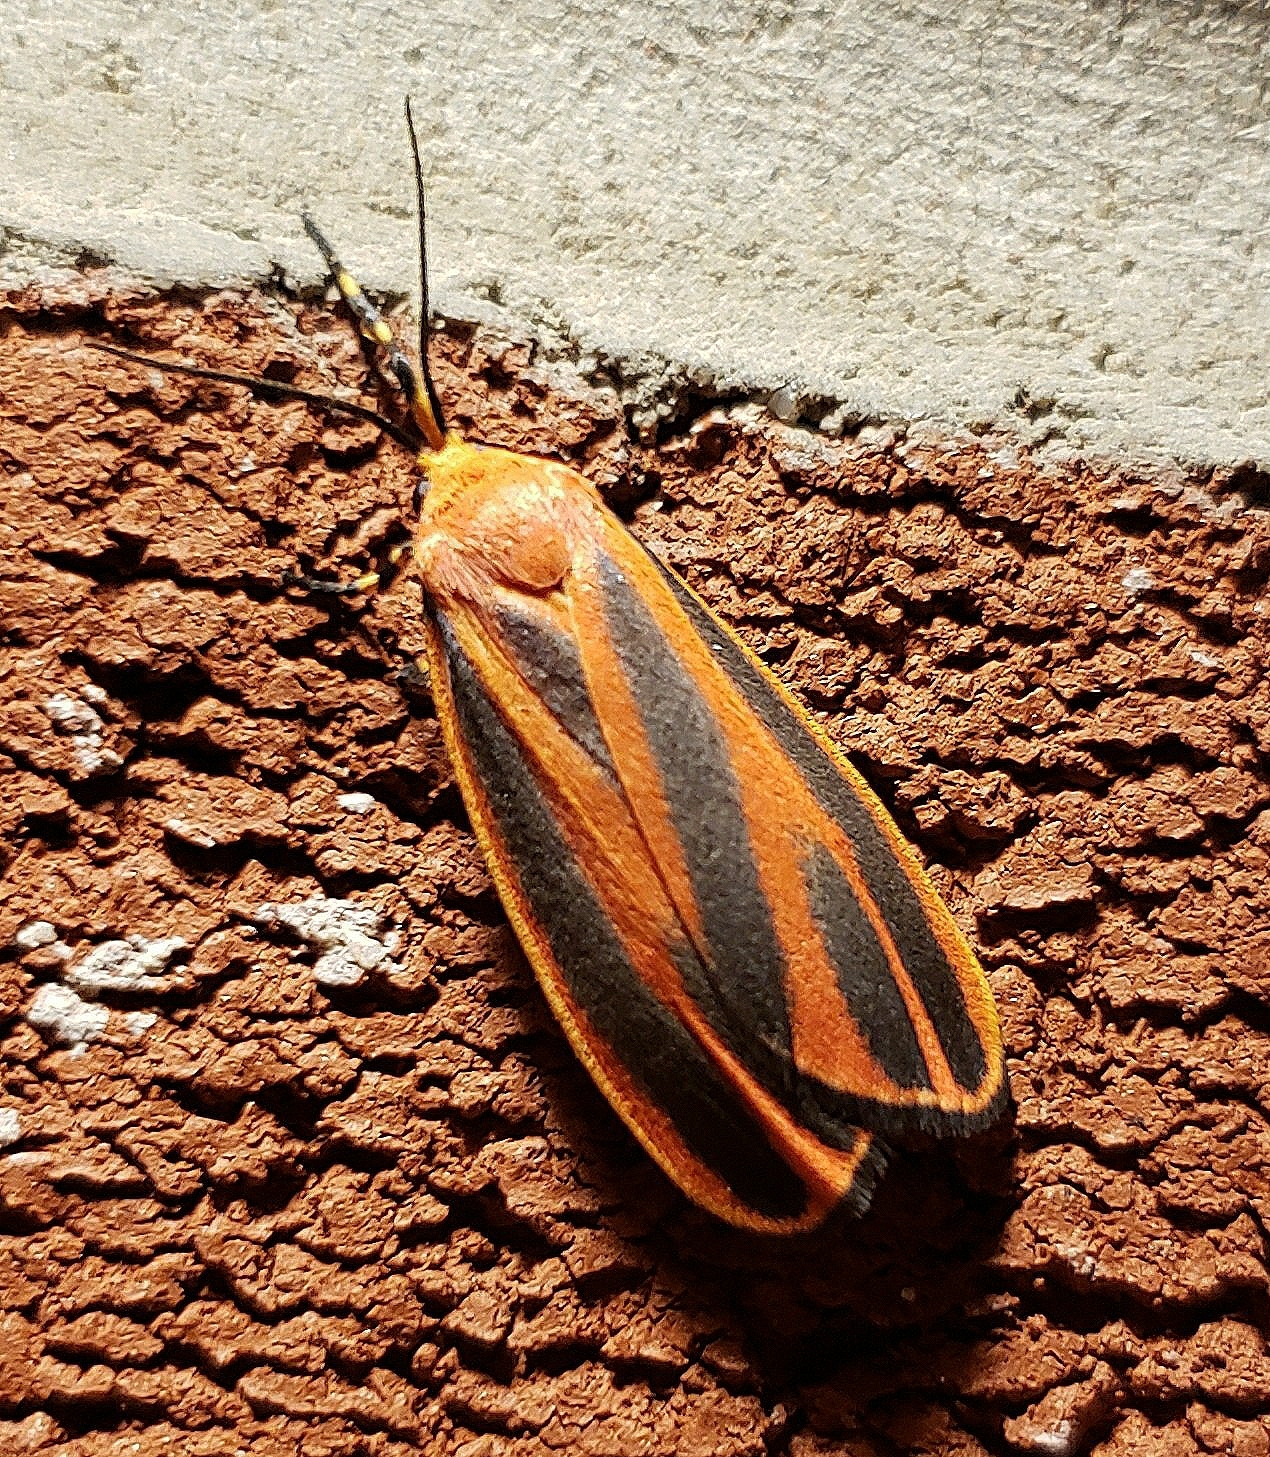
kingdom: Animalia
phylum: Arthropoda
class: Insecta
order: Lepidoptera
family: Erebidae
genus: Hypoprepia
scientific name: Hypoprepia miniata
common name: Scarlet-winged lichen moth
